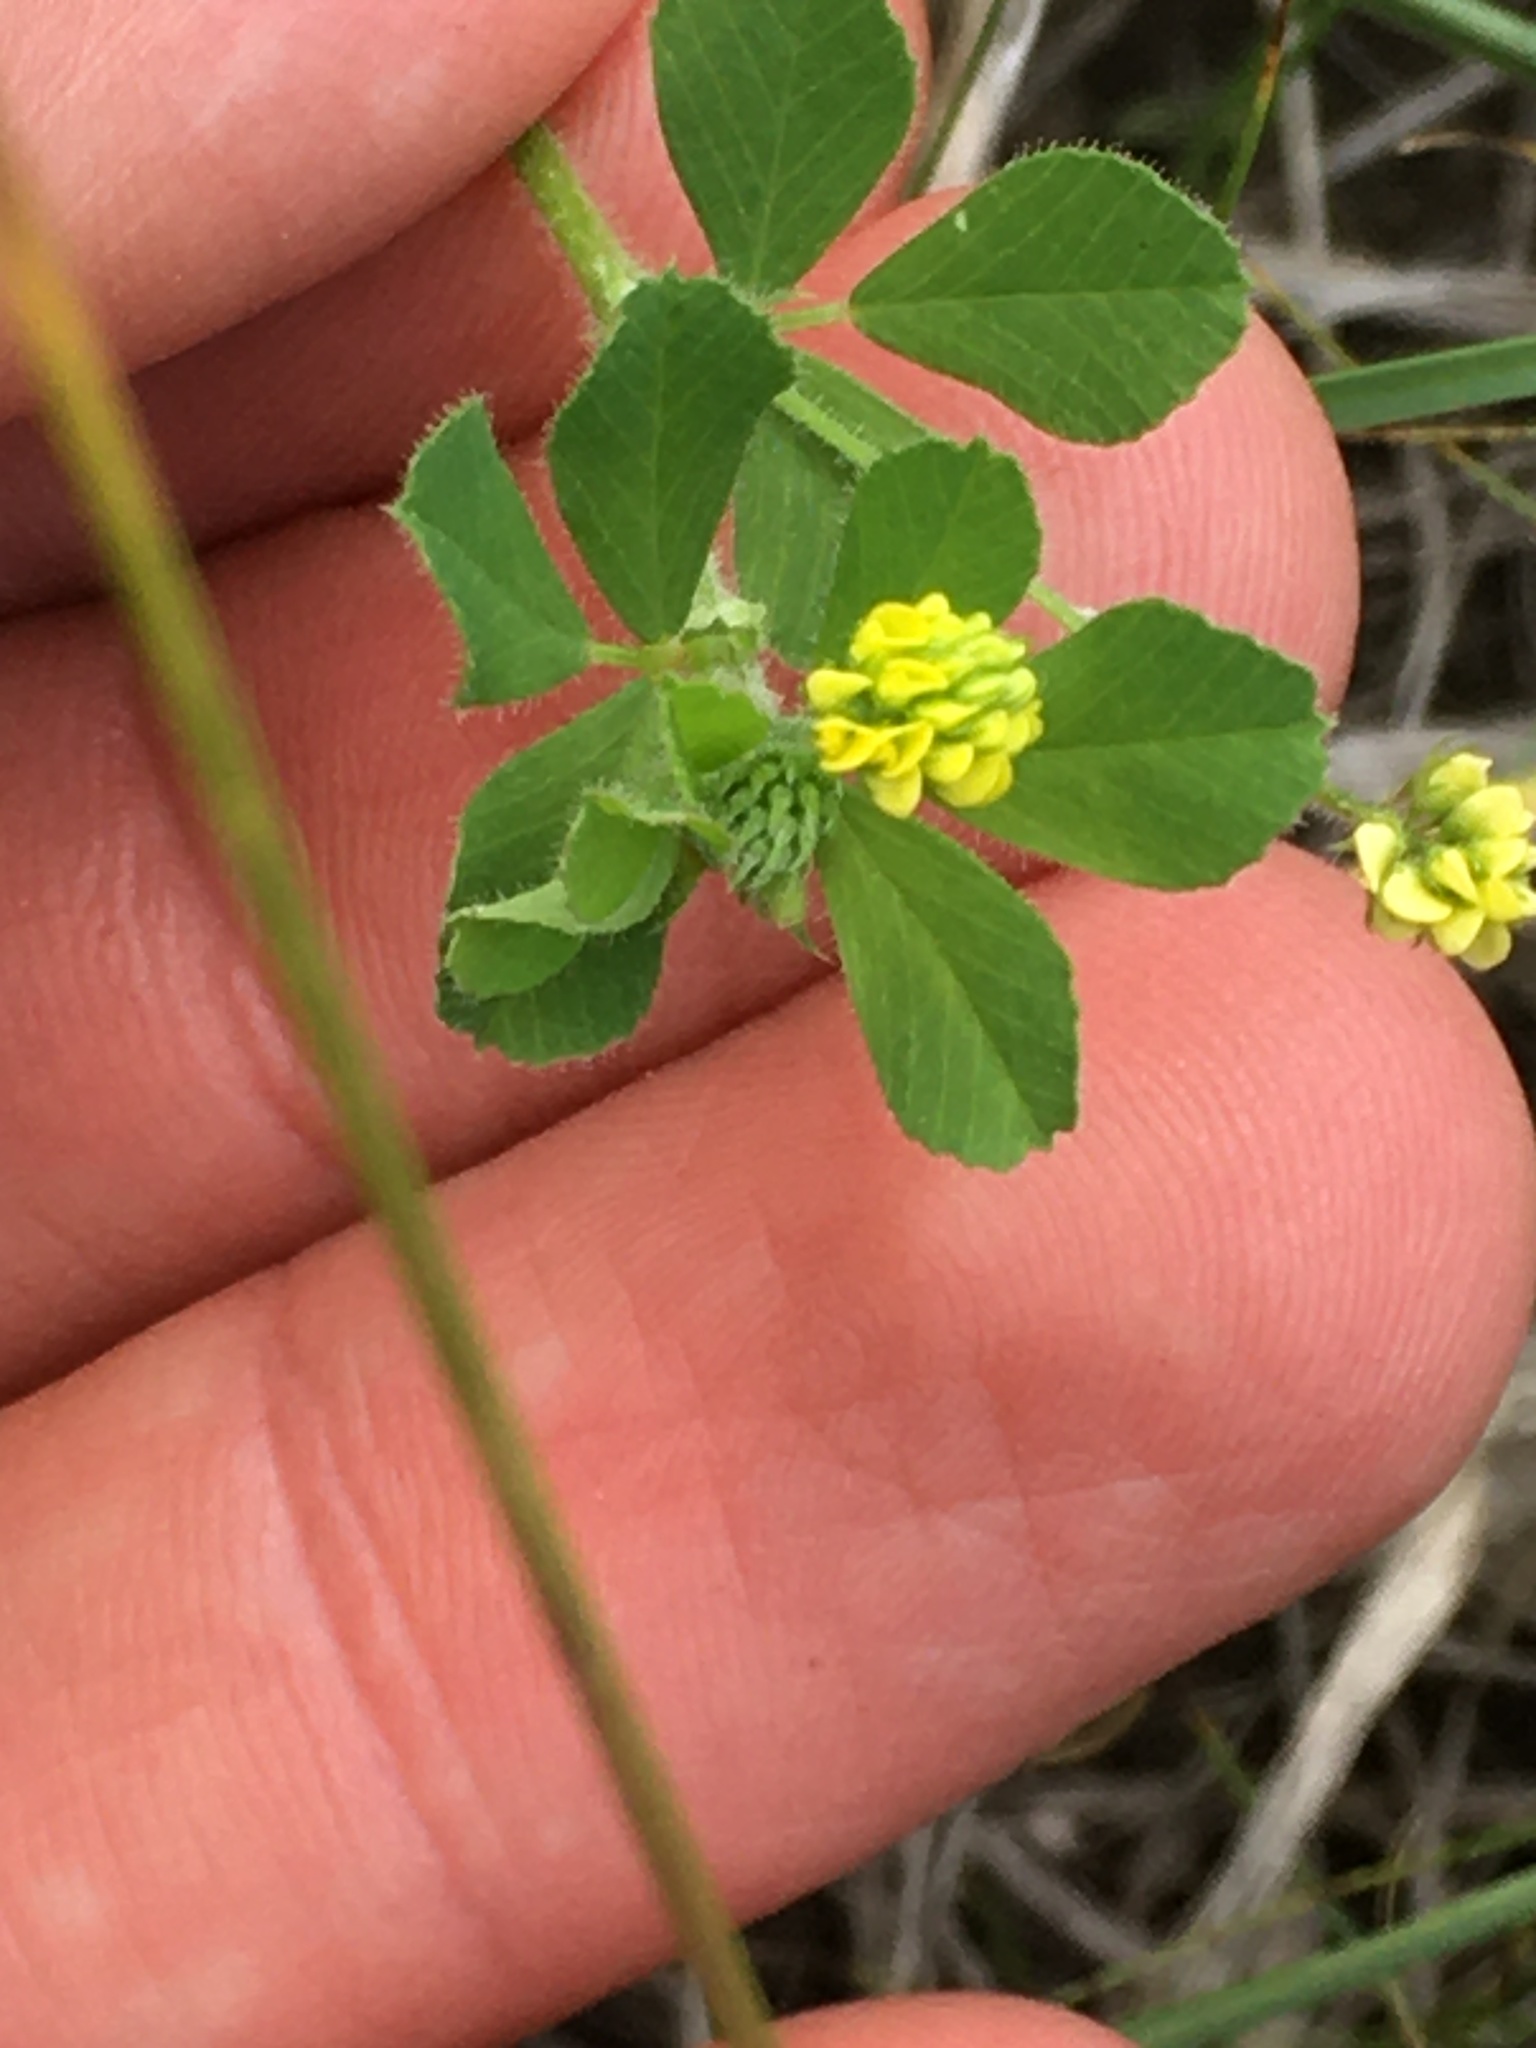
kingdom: Plantae
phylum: Tracheophyta
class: Magnoliopsida
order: Fabales
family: Fabaceae
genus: Medicago
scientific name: Medicago lupulina
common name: Black medick
